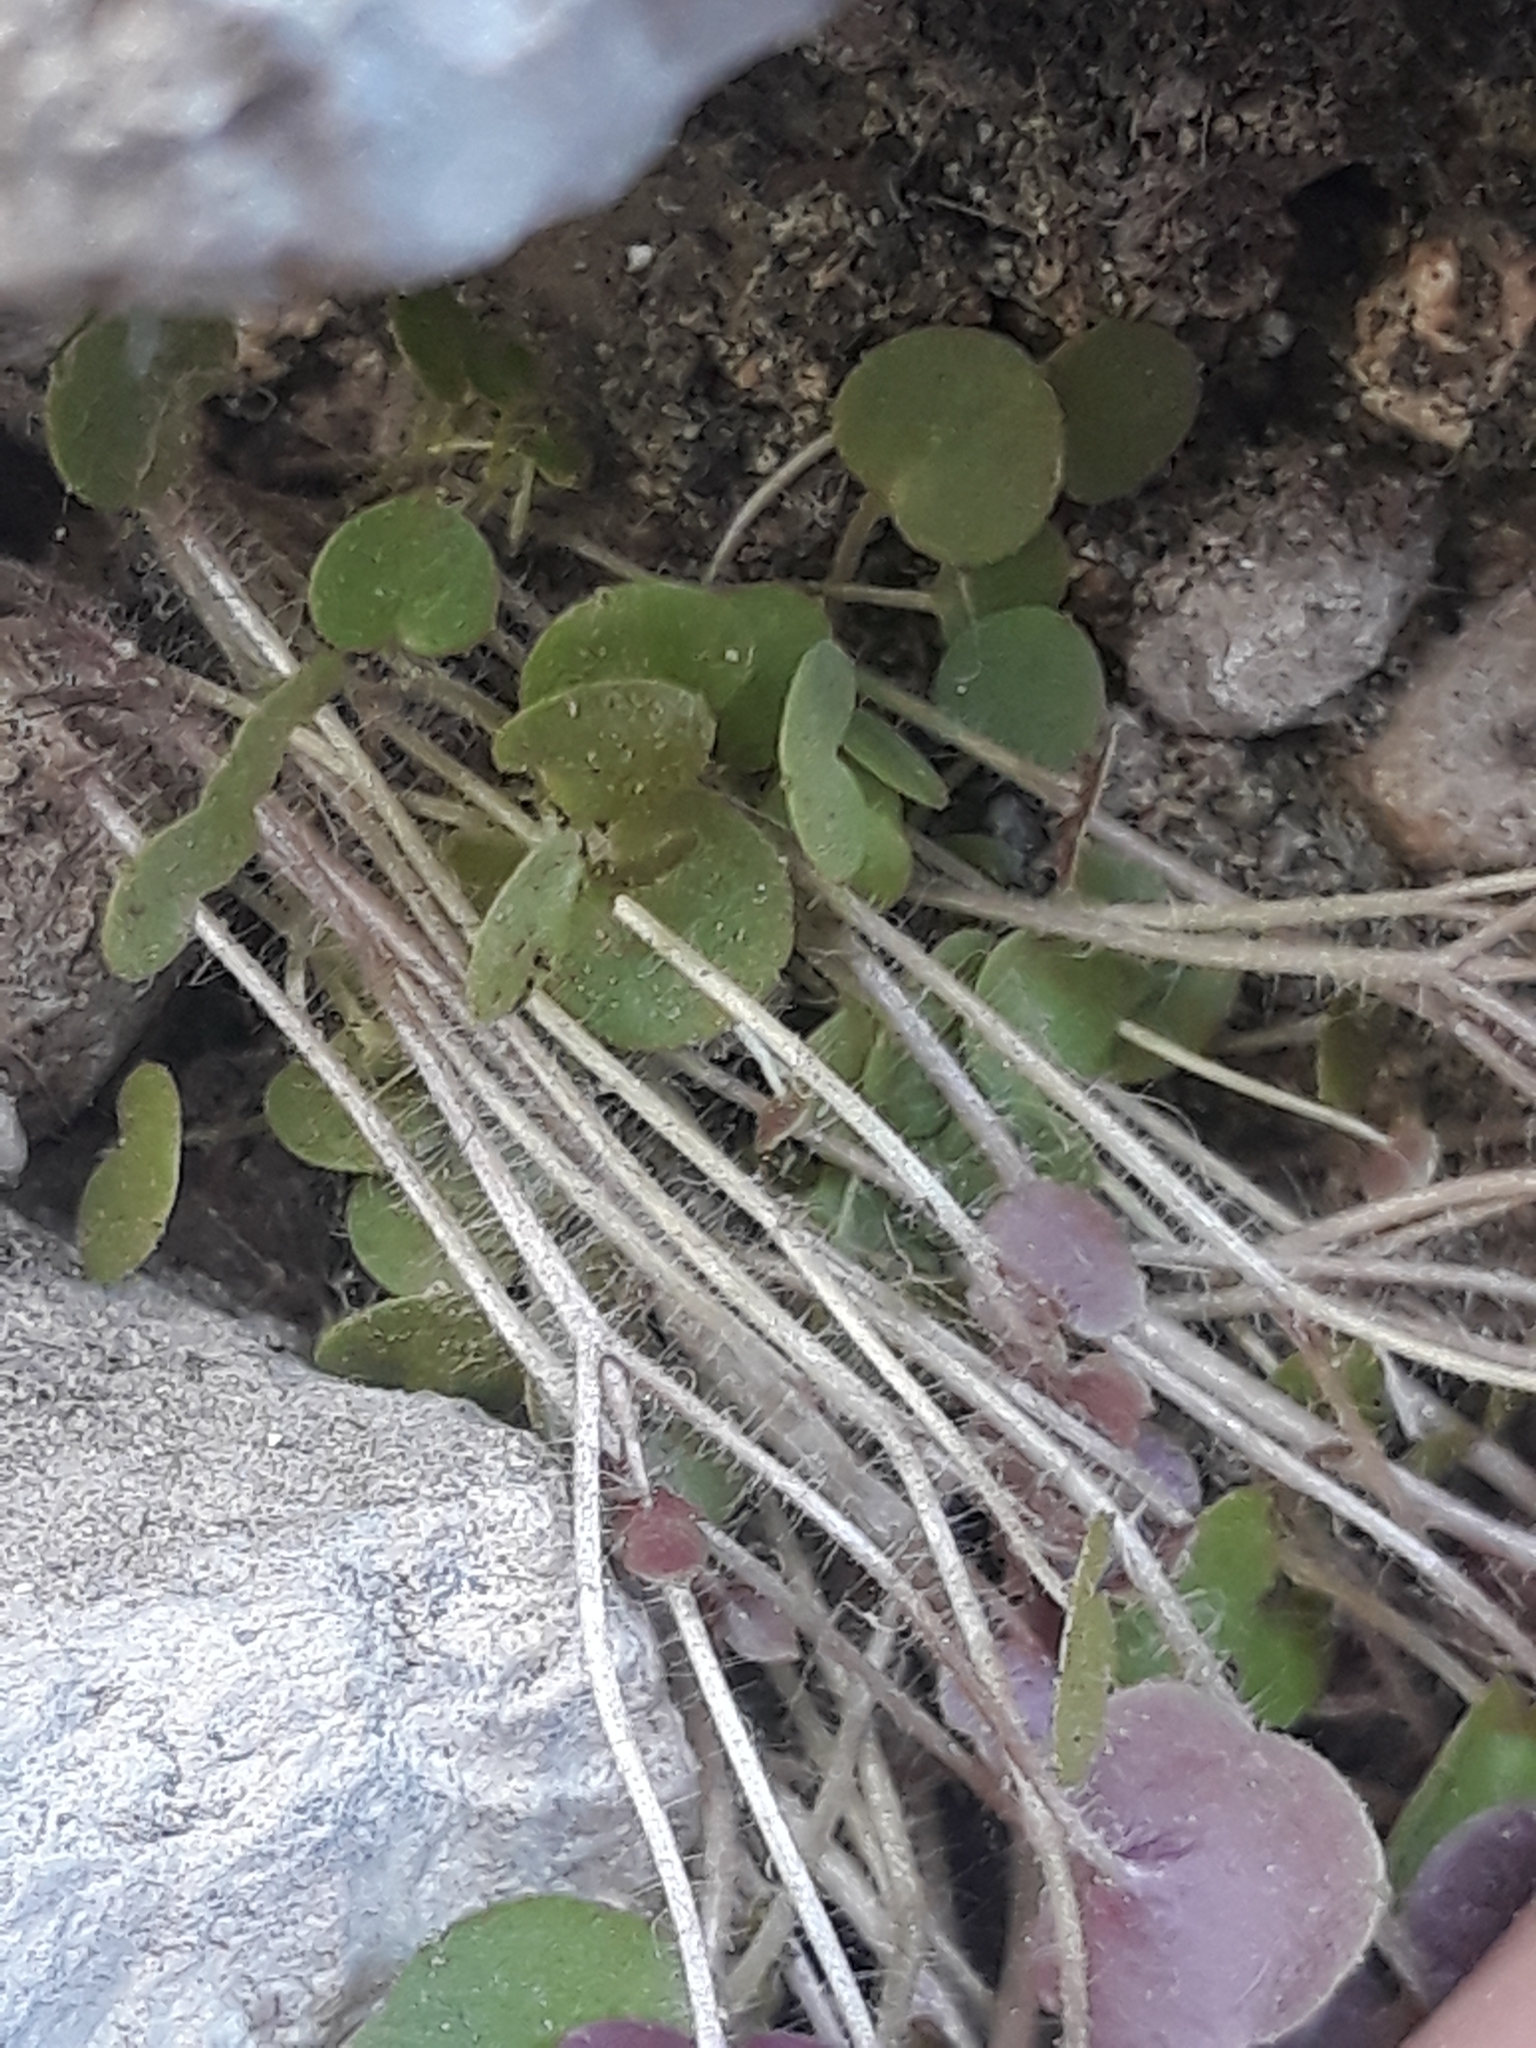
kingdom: Plantae
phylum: Tracheophyta
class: Magnoliopsida
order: Lamiales
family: Plantaginaceae
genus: Cymbalaria
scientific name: Cymbalaria muralis
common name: Ivy-leaved toadflax
